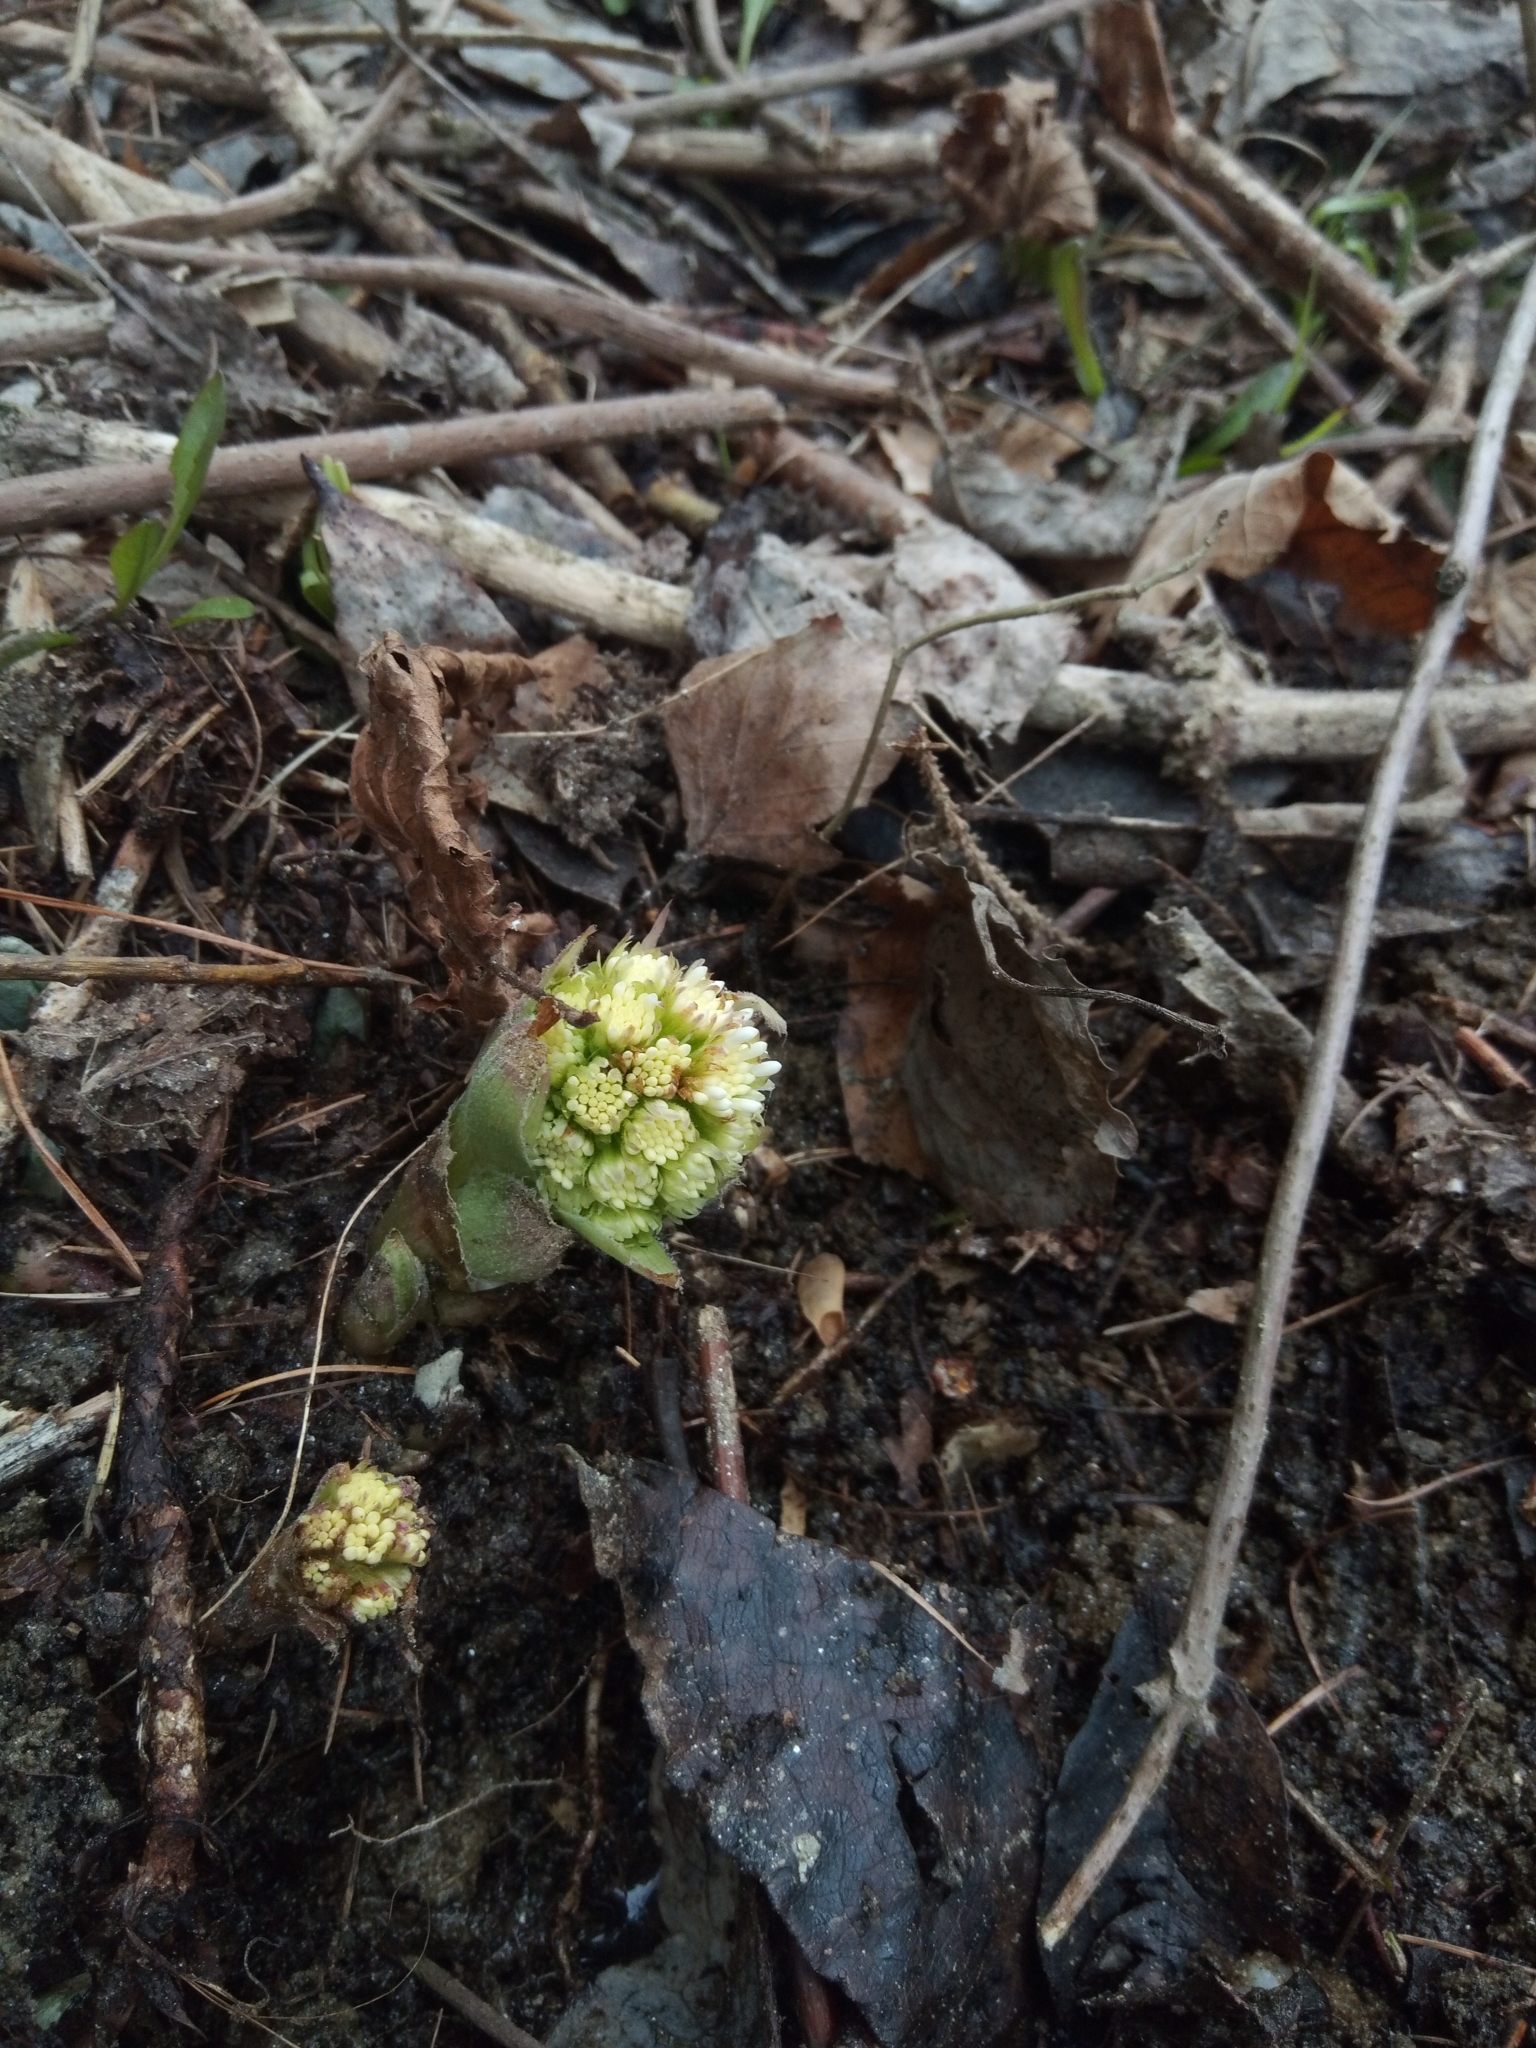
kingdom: Plantae
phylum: Tracheophyta
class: Magnoliopsida
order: Asterales
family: Asteraceae
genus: Petasites
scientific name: Petasites albus
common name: White butterbur
